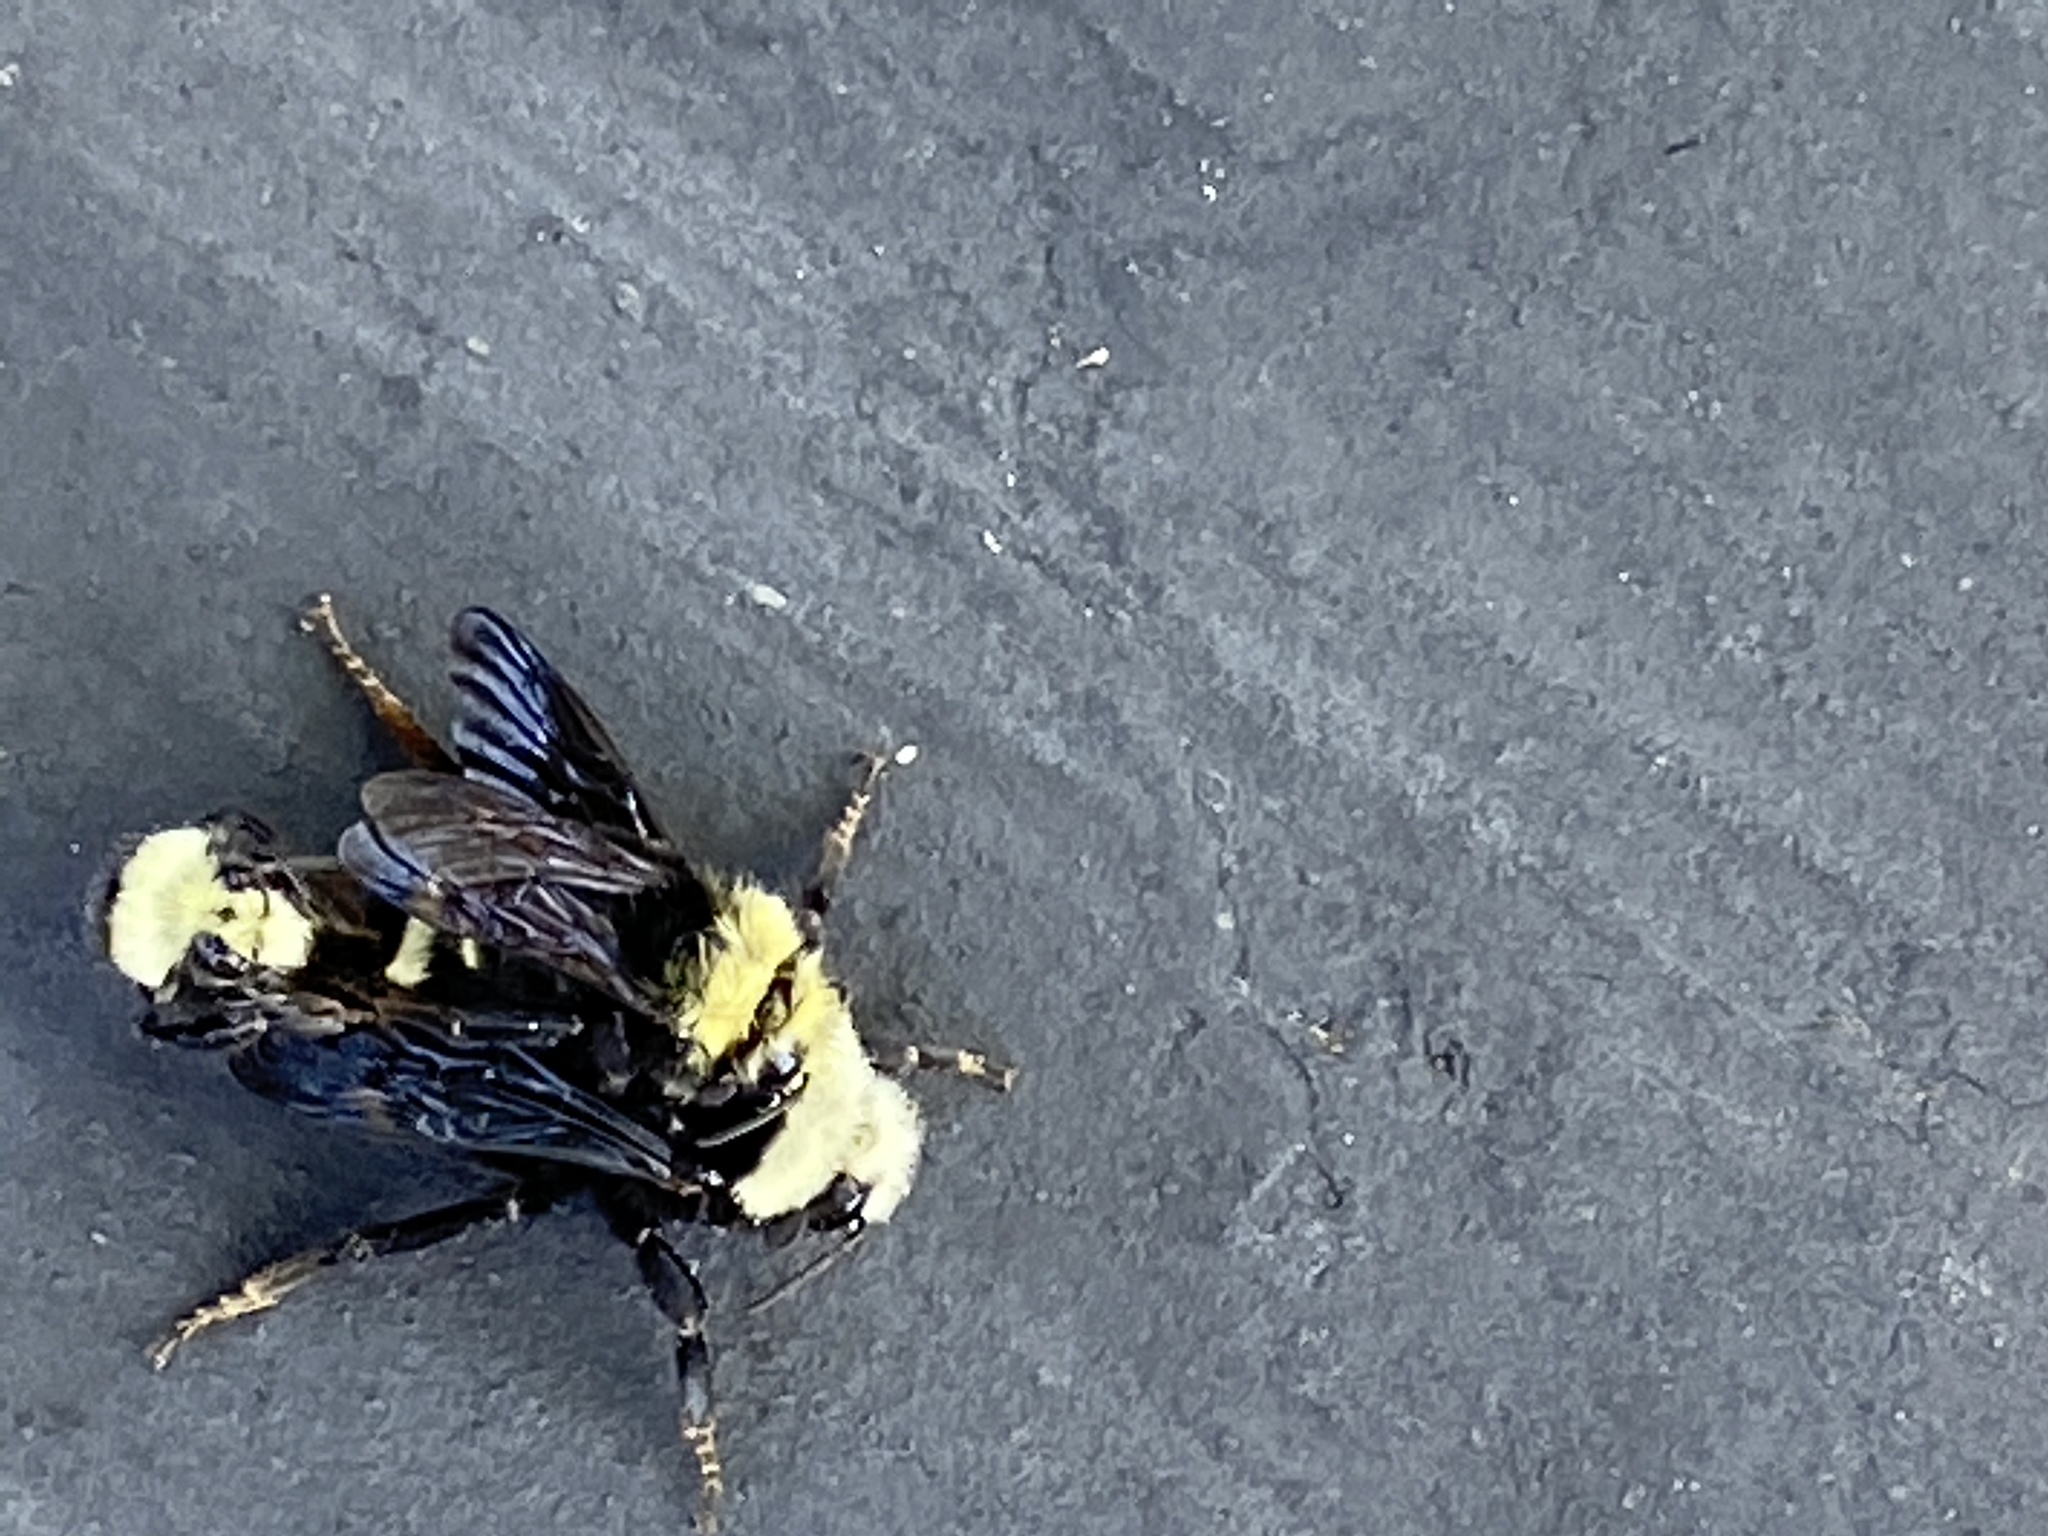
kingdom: Animalia
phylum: Arthropoda
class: Insecta
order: Hymenoptera
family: Apidae
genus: Bombus
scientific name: Bombus vosnesenskii
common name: Vosnesensky bumble bee
